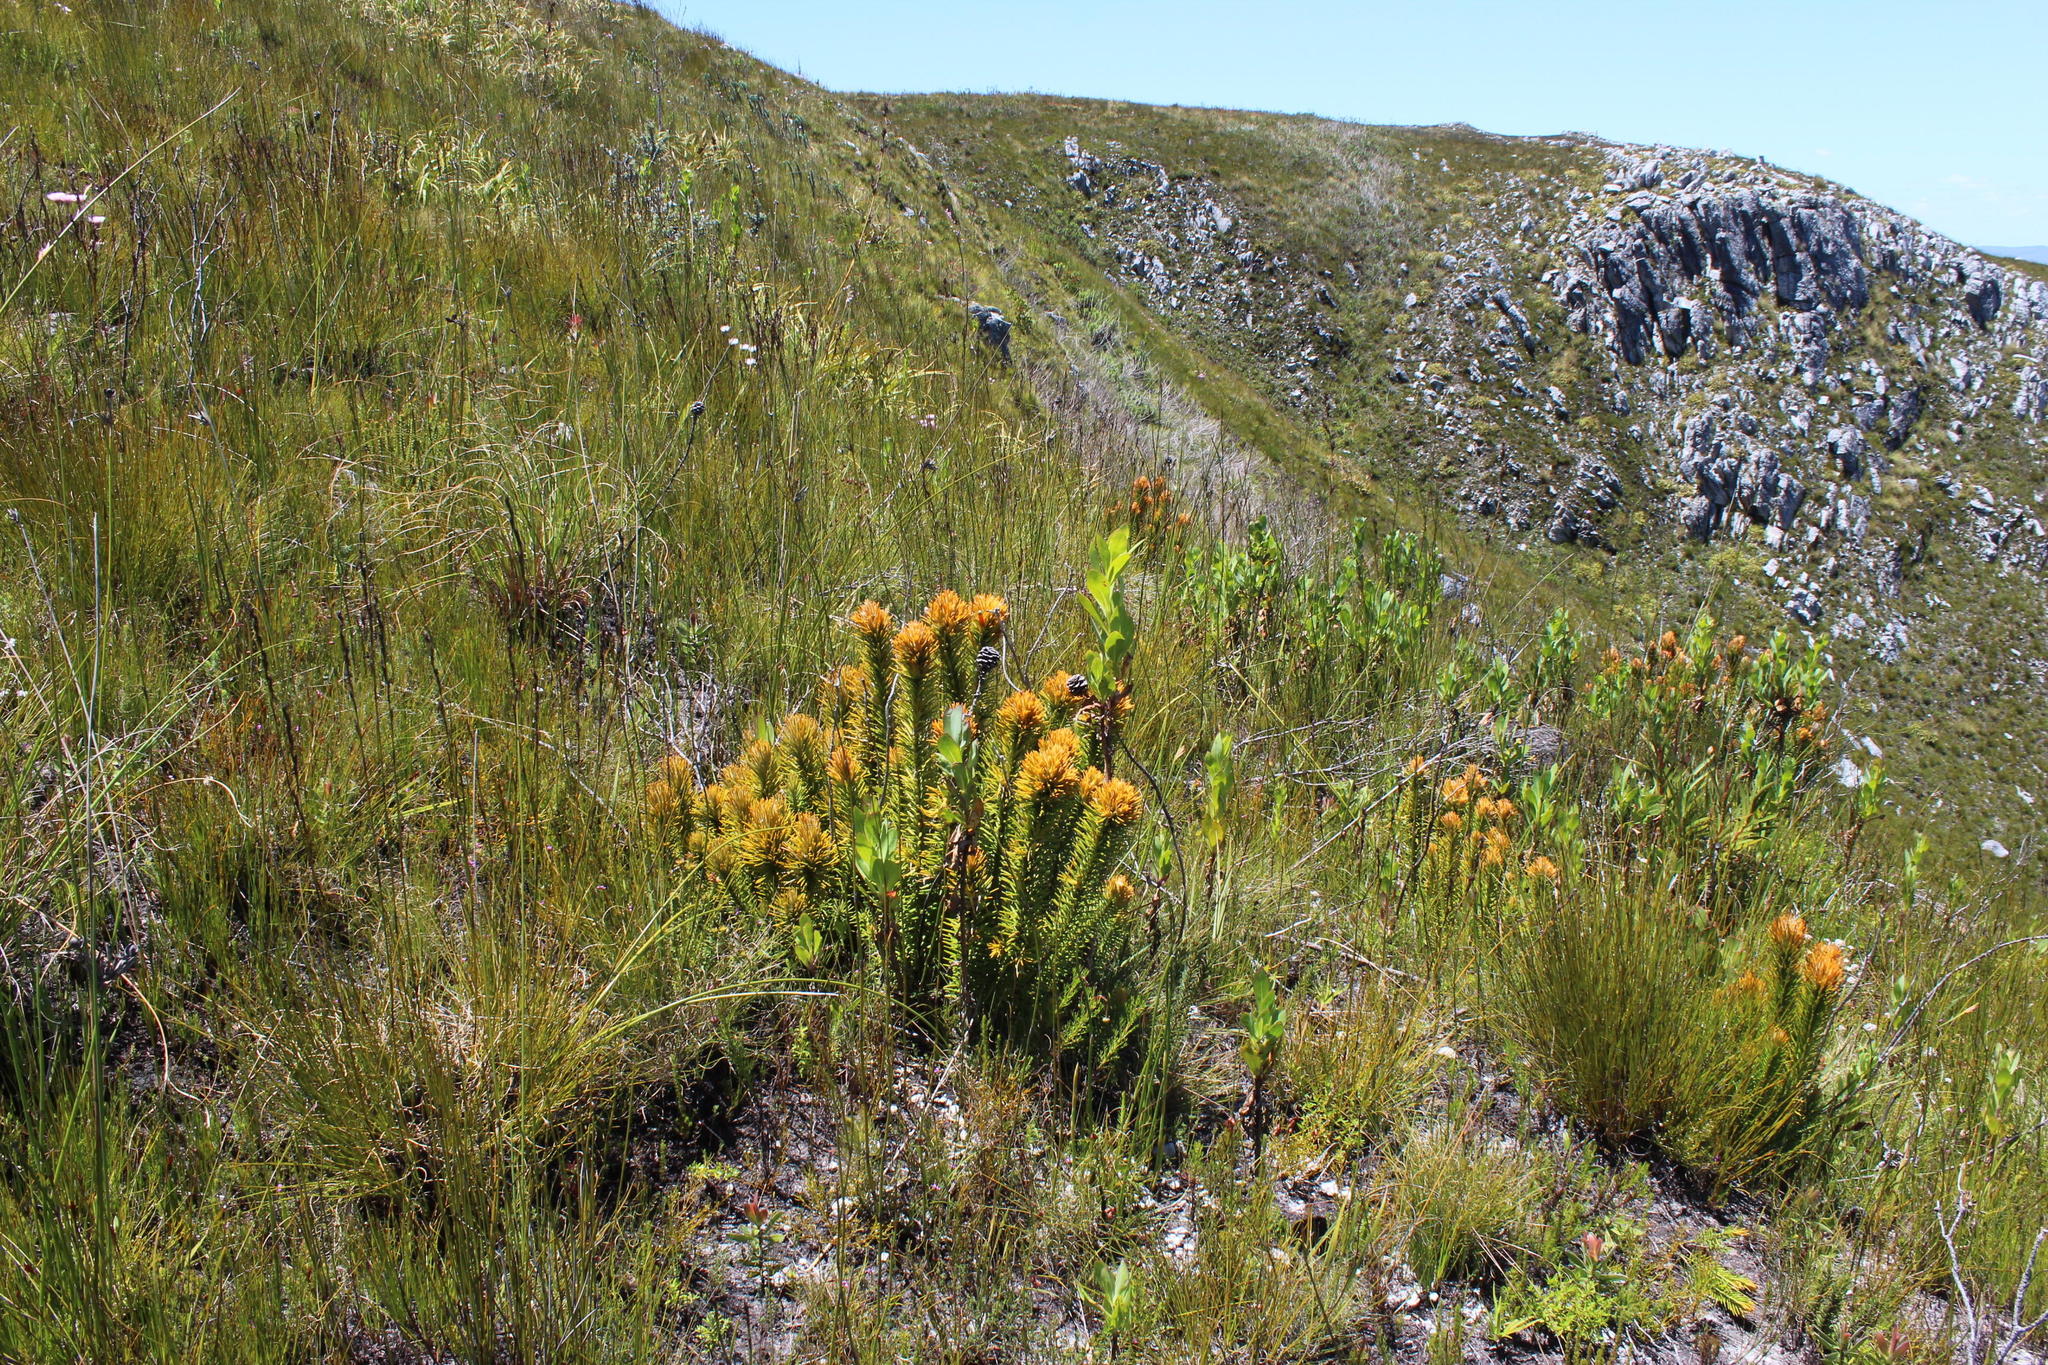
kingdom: Plantae
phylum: Tracheophyta
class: Magnoliopsida
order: Lamiales
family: Stilbaceae
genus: Retzia
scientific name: Retzia capensis
